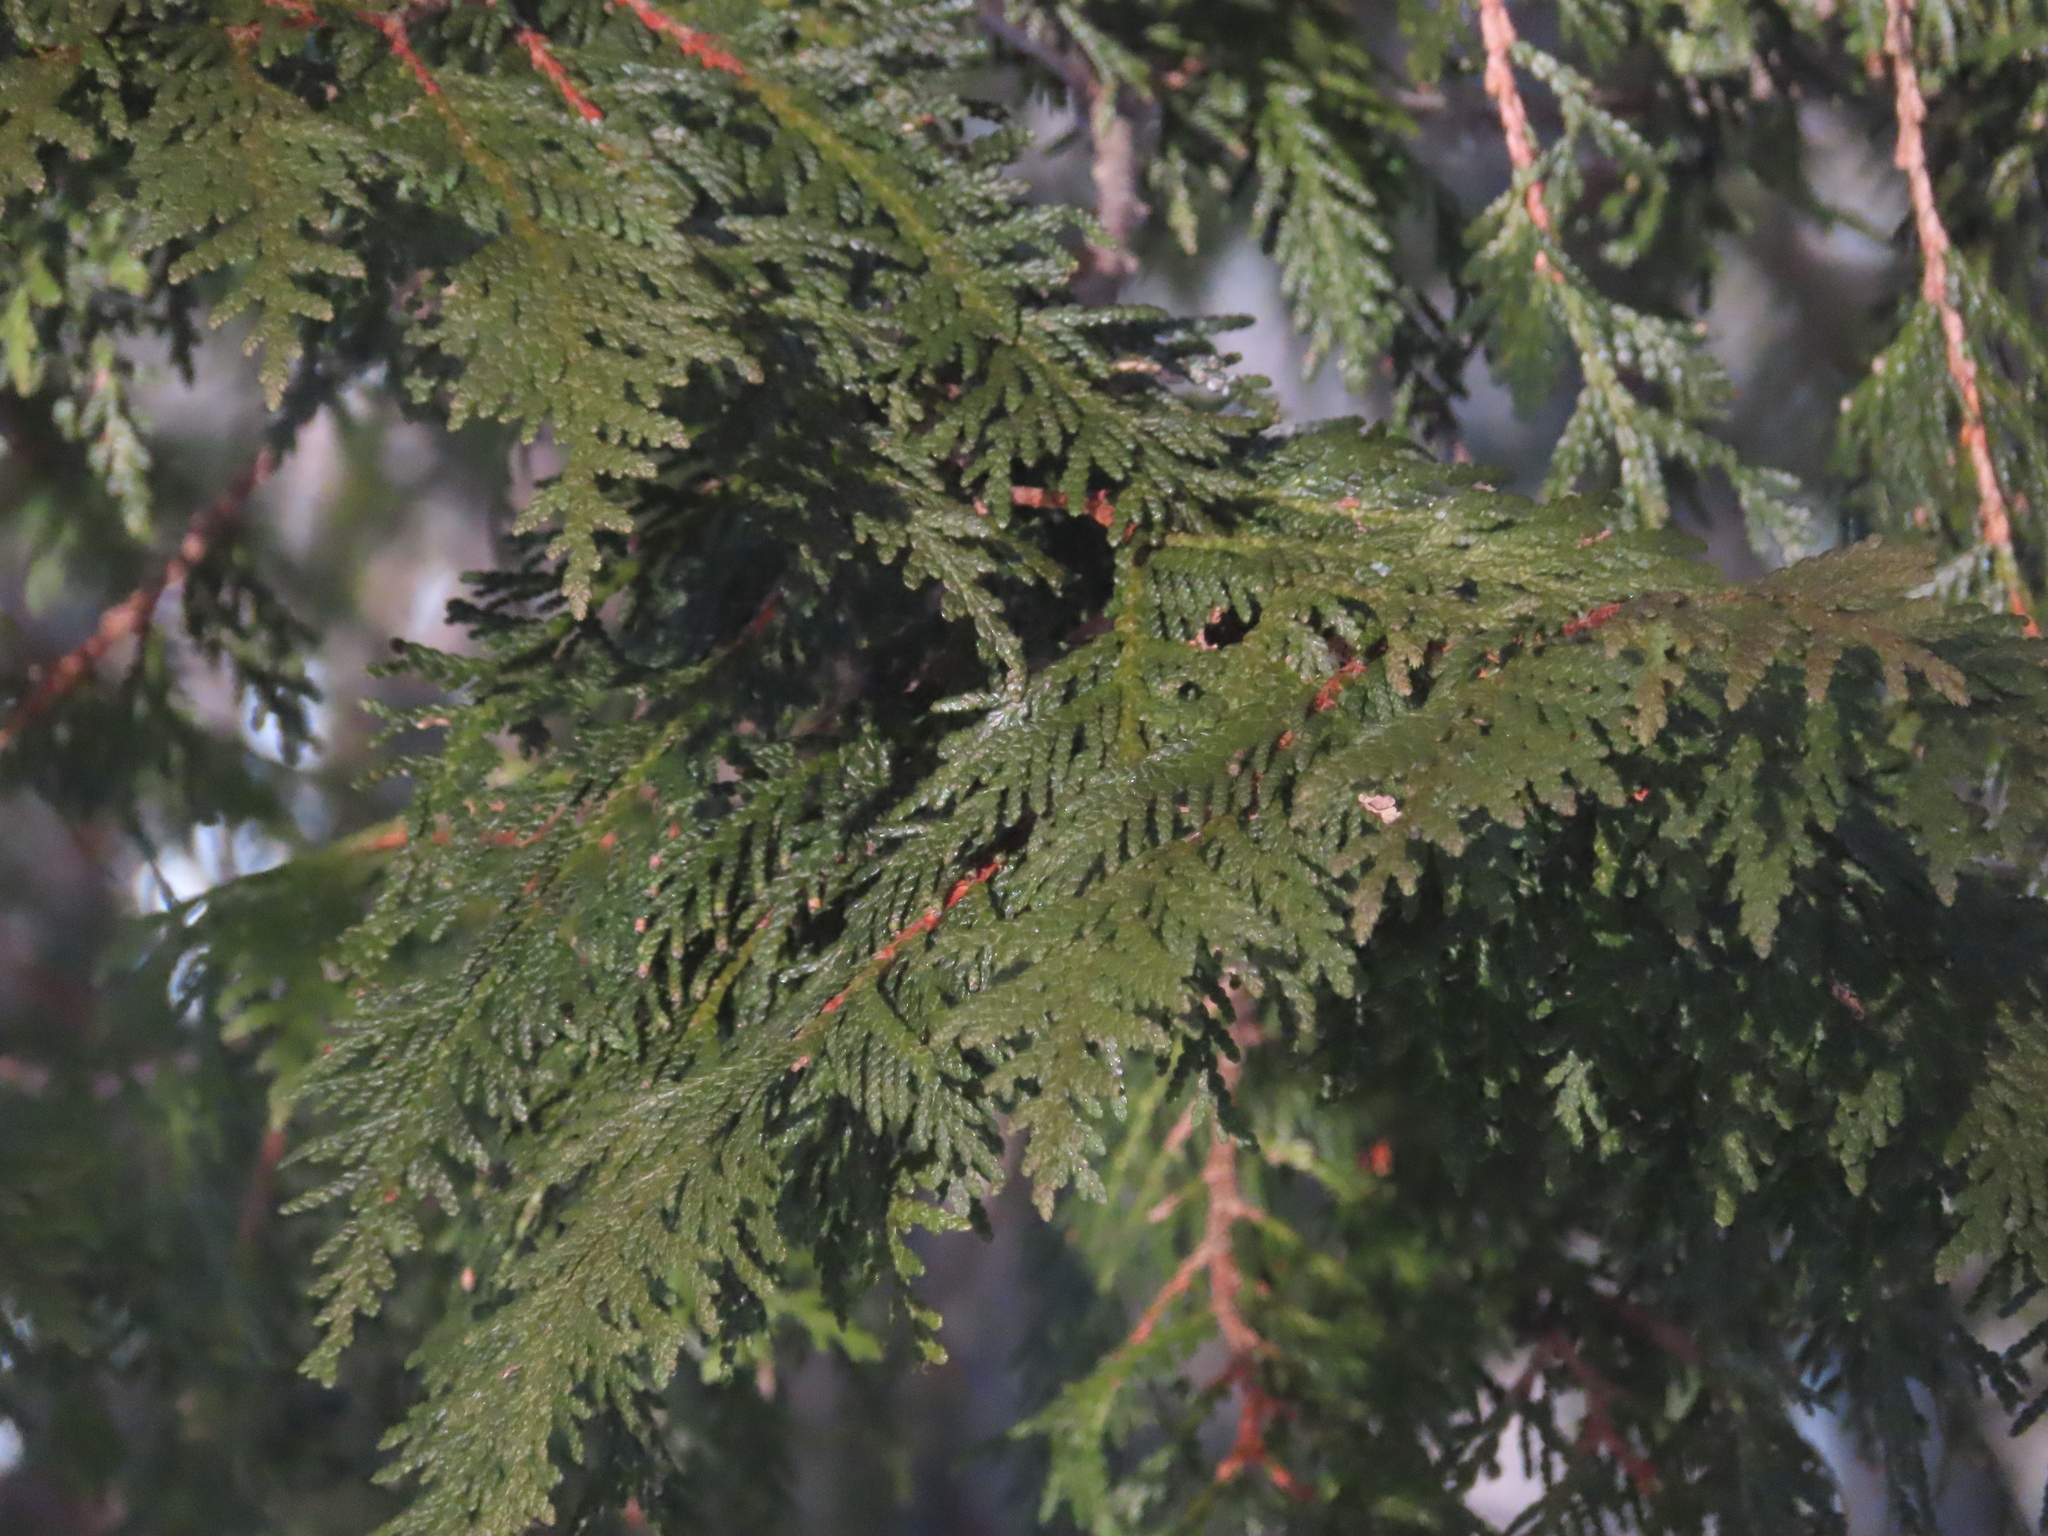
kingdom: Plantae
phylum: Tracheophyta
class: Pinopsida
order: Pinales
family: Cupressaceae
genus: Thuja
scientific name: Thuja occidentalis
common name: Northern white-cedar
